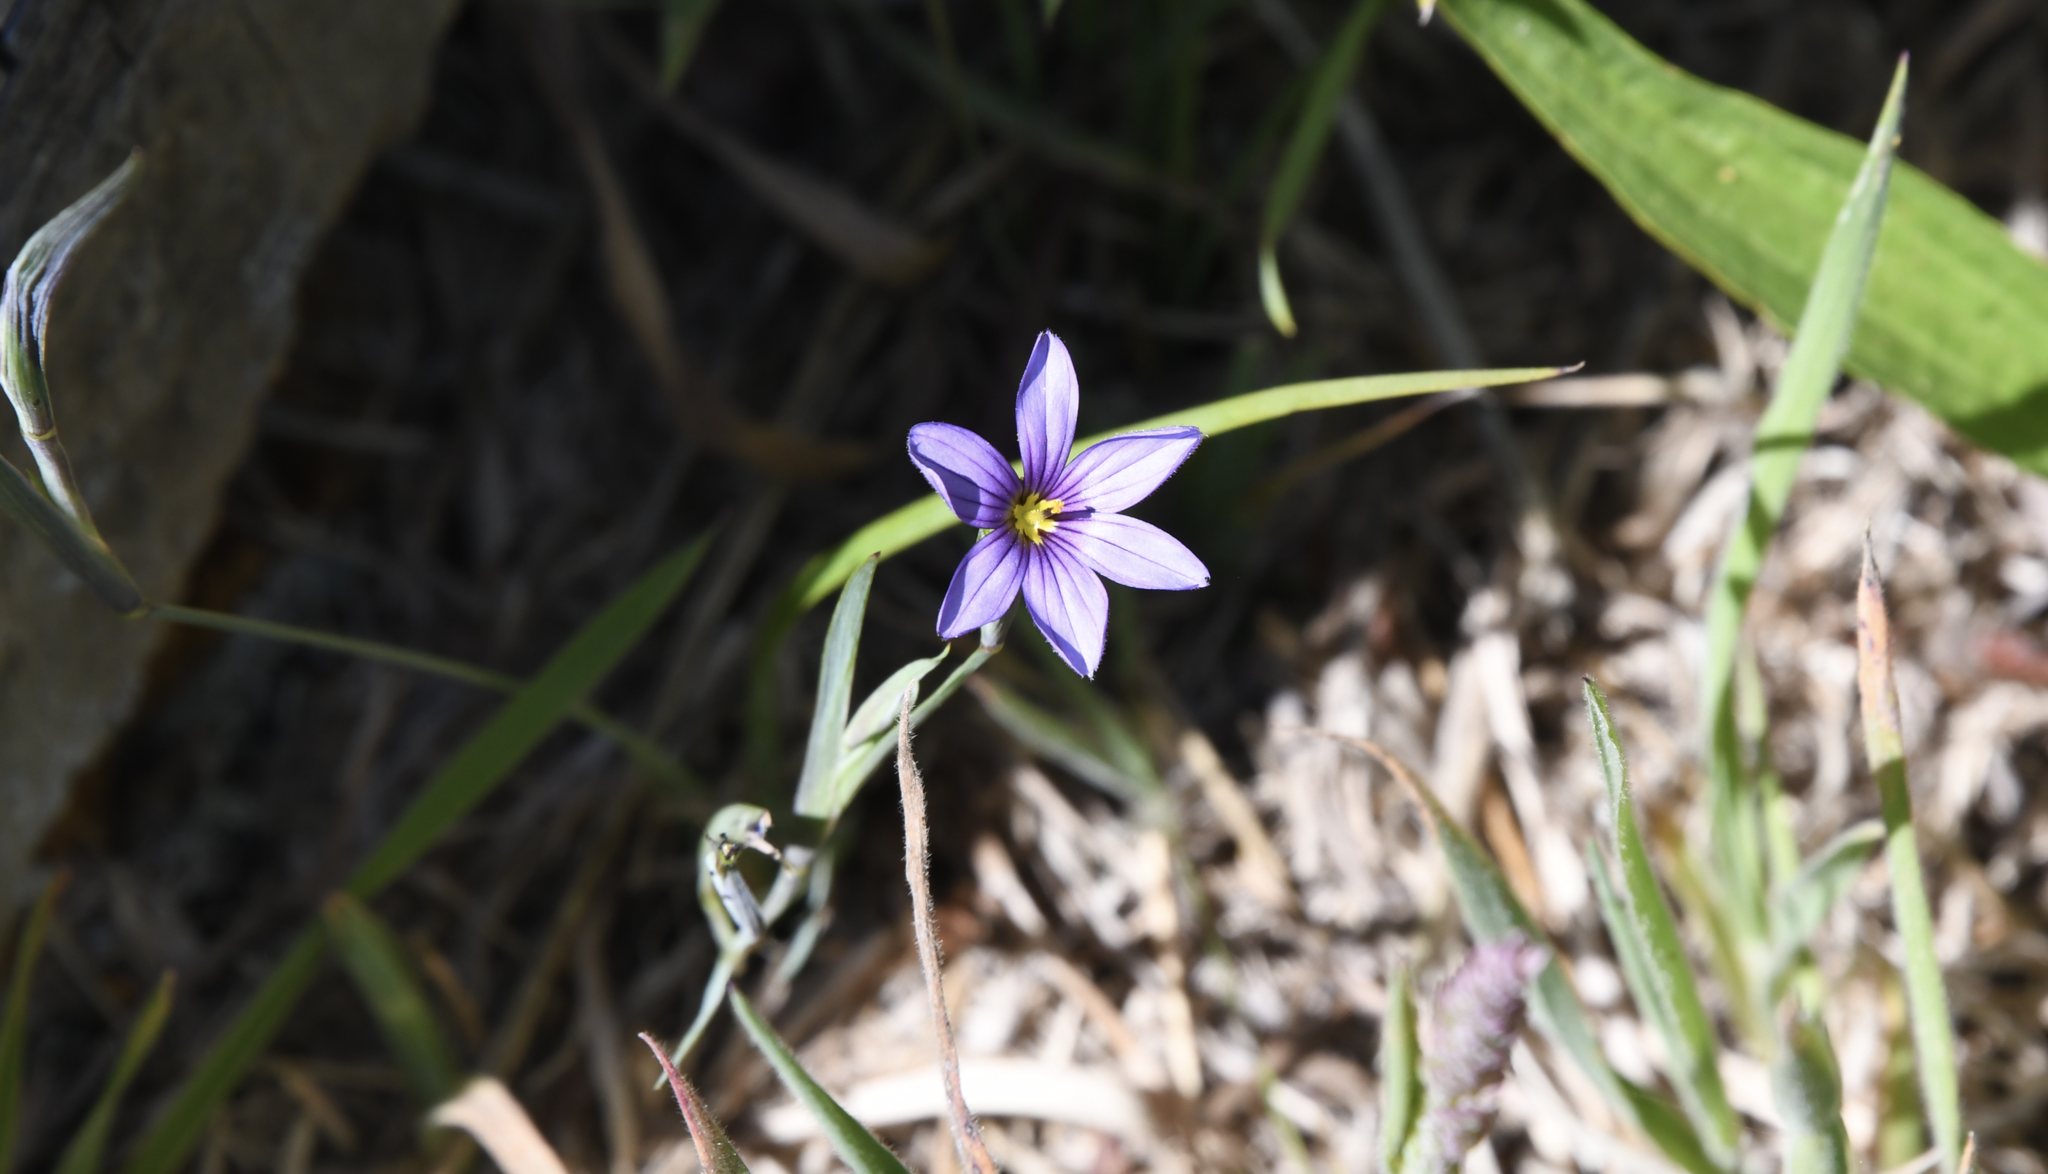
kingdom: Plantae
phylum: Tracheophyta
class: Liliopsida
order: Asparagales
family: Iridaceae
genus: Sisyrinchium
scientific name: Sisyrinchium bellum
